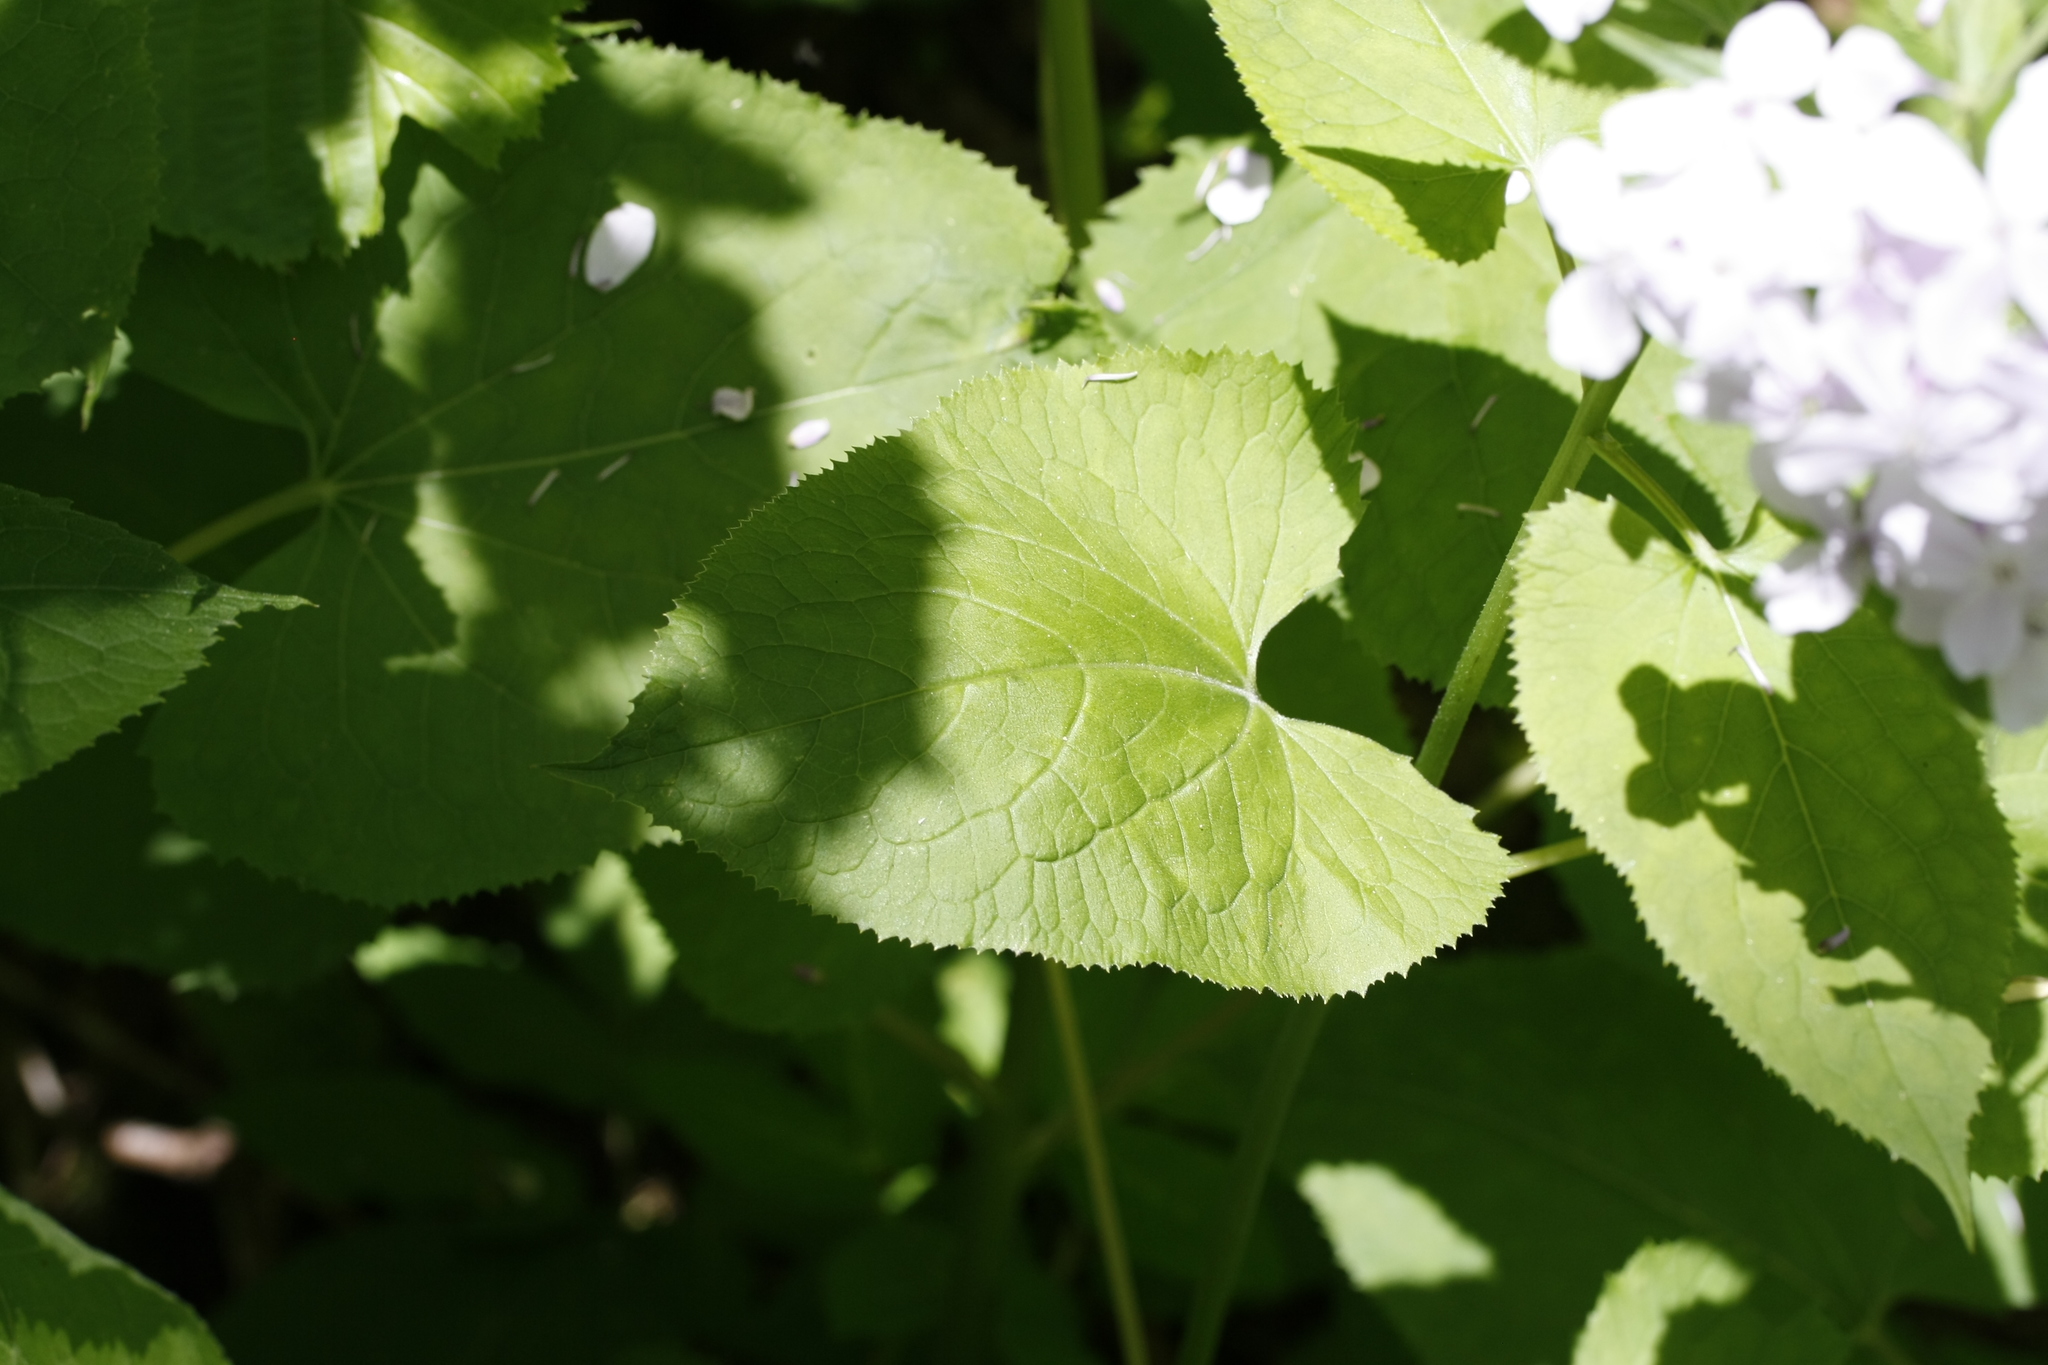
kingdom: Plantae
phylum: Tracheophyta
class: Magnoliopsida
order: Brassicales
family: Brassicaceae
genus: Lunaria
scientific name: Lunaria rediviva
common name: Perennial honesty
